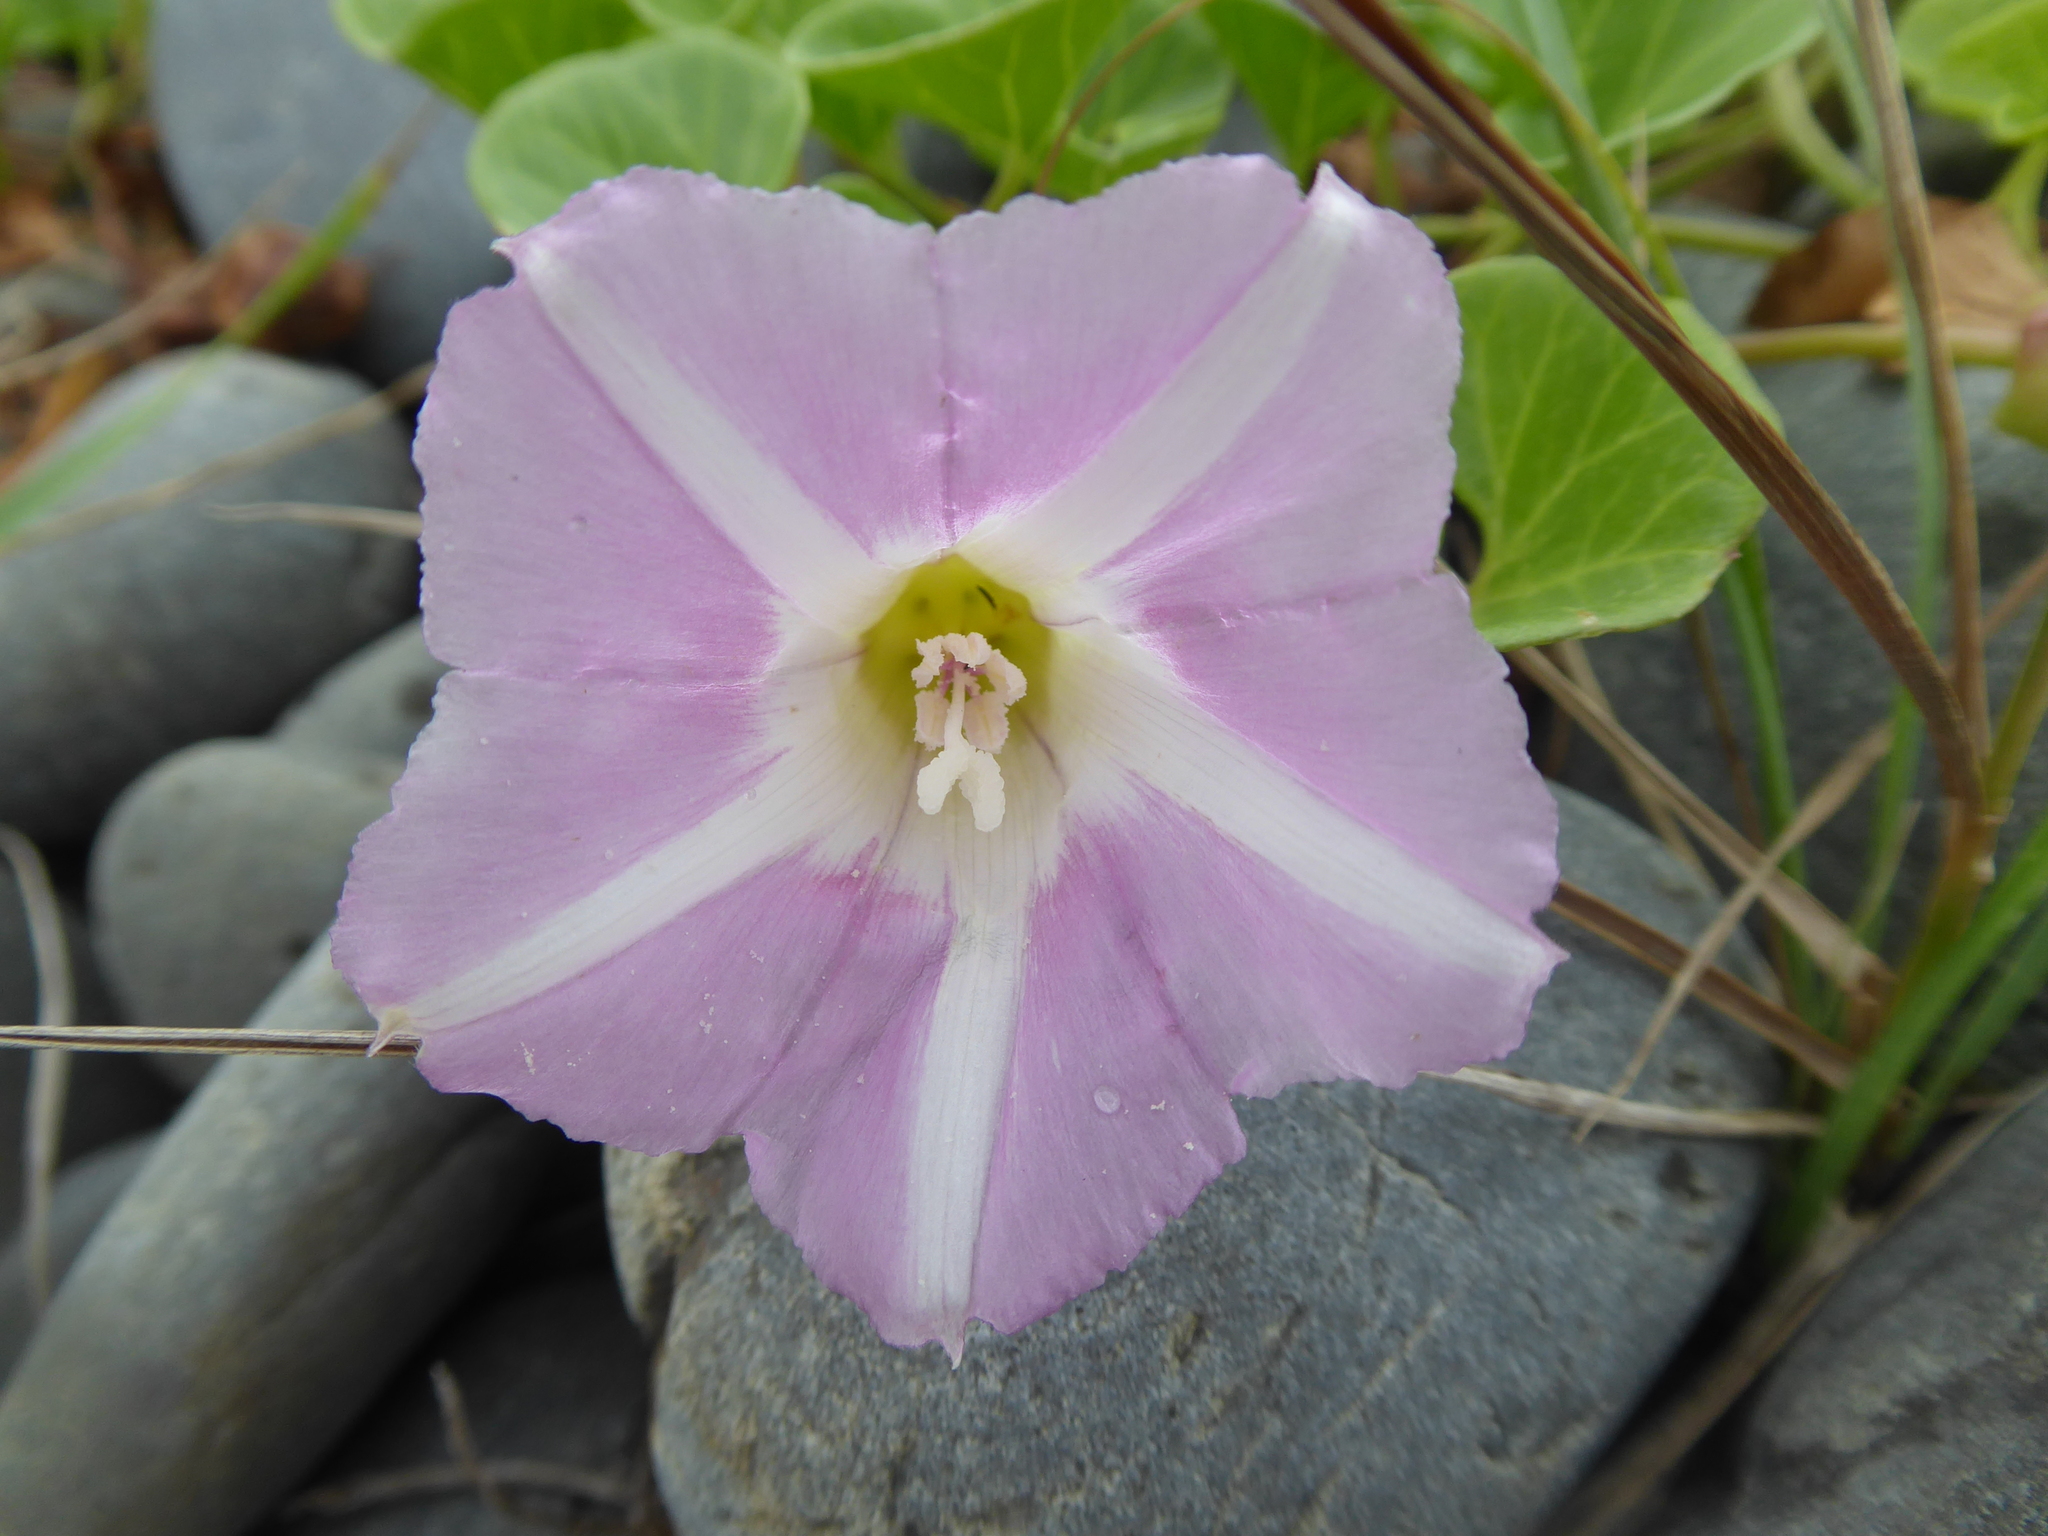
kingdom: Plantae
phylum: Tracheophyta
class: Magnoliopsida
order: Solanales
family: Convolvulaceae
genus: Calystegia
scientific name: Calystegia soldanella
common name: Sea bindweed
